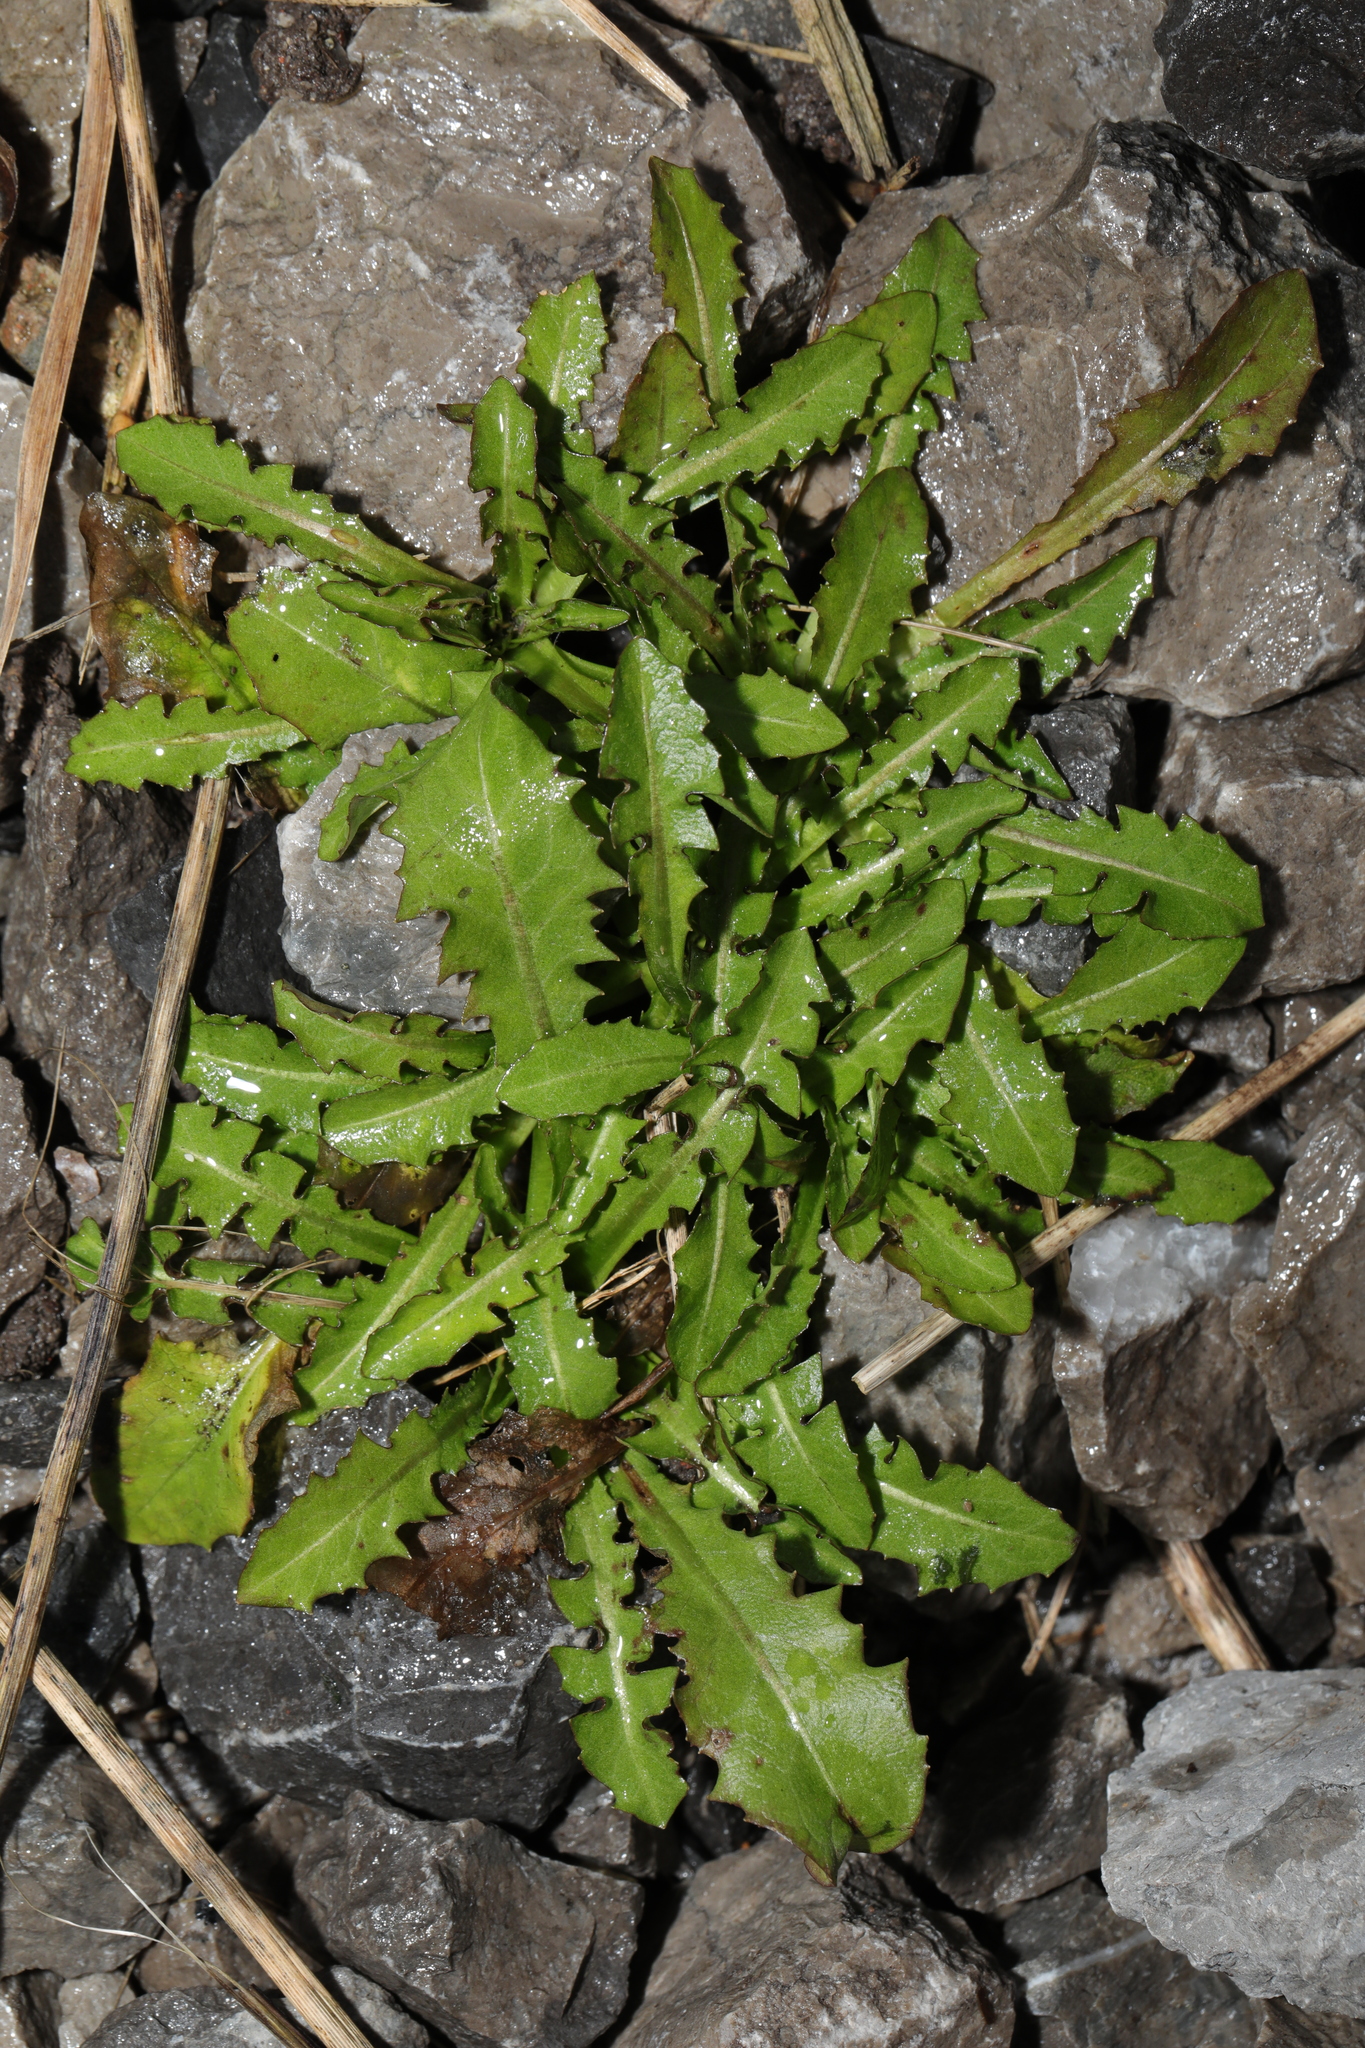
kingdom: Plantae
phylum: Tracheophyta
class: Magnoliopsida
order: Asterales
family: Asteraceae
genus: Taraxacum
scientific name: Taraxacum officinale
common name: Common dandelion
